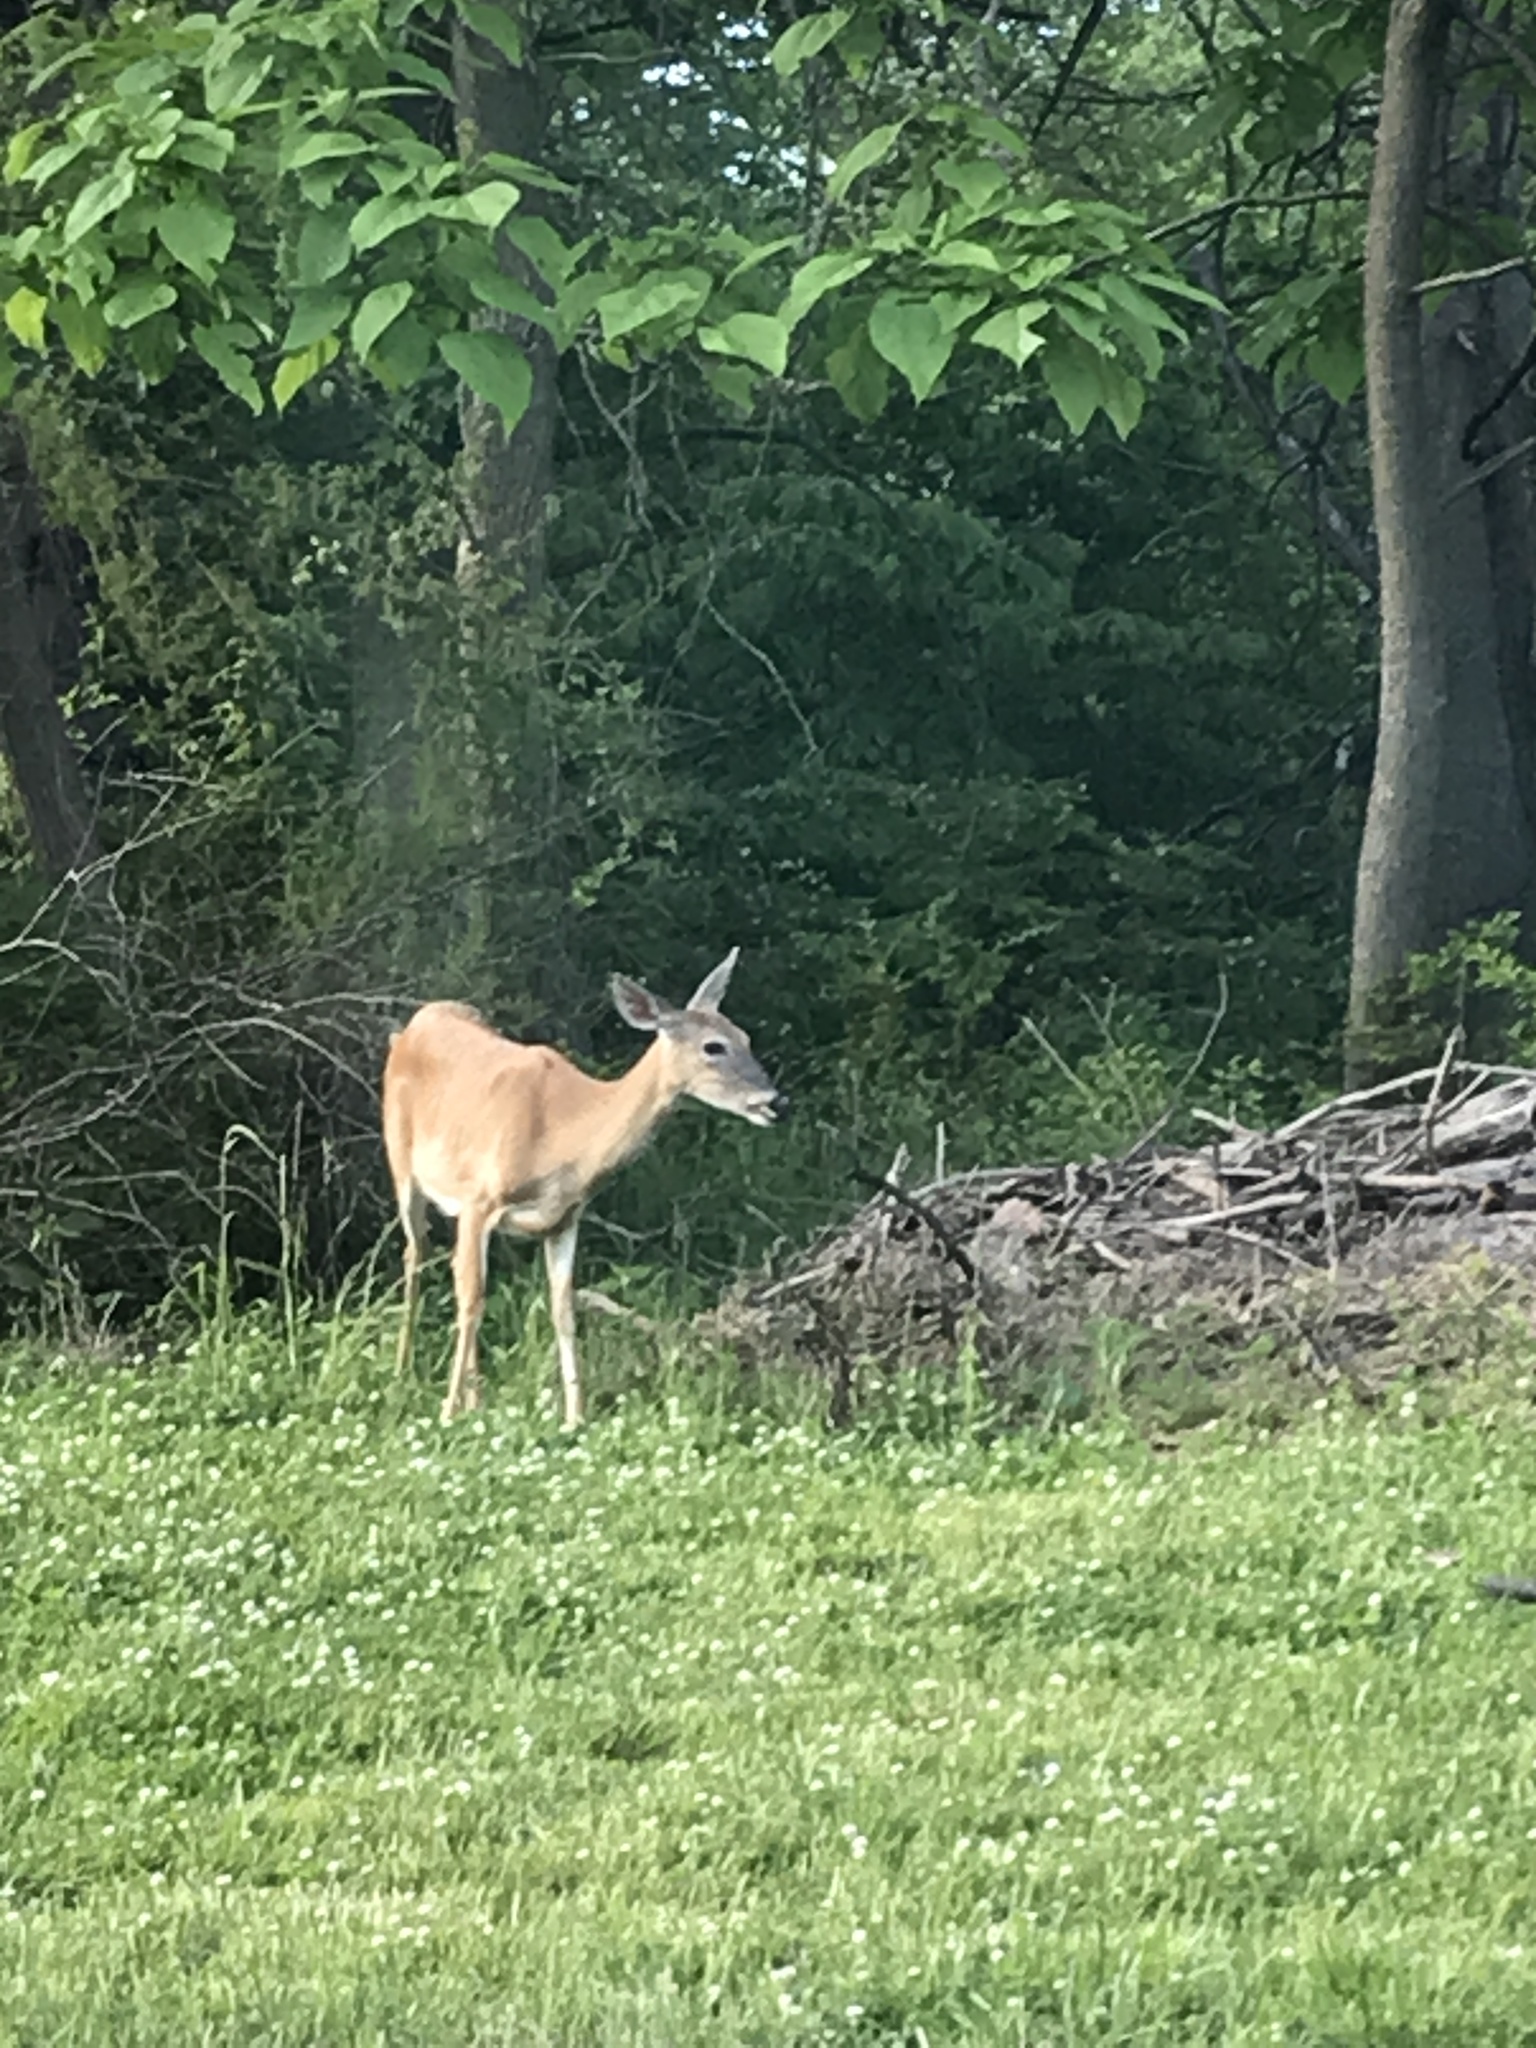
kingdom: Animalia
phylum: Chordata
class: Mammalia
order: Artiodactyla
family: Cervidae
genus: Odocoileus
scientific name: Odocoileus virginianus
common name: White-tailed deer
